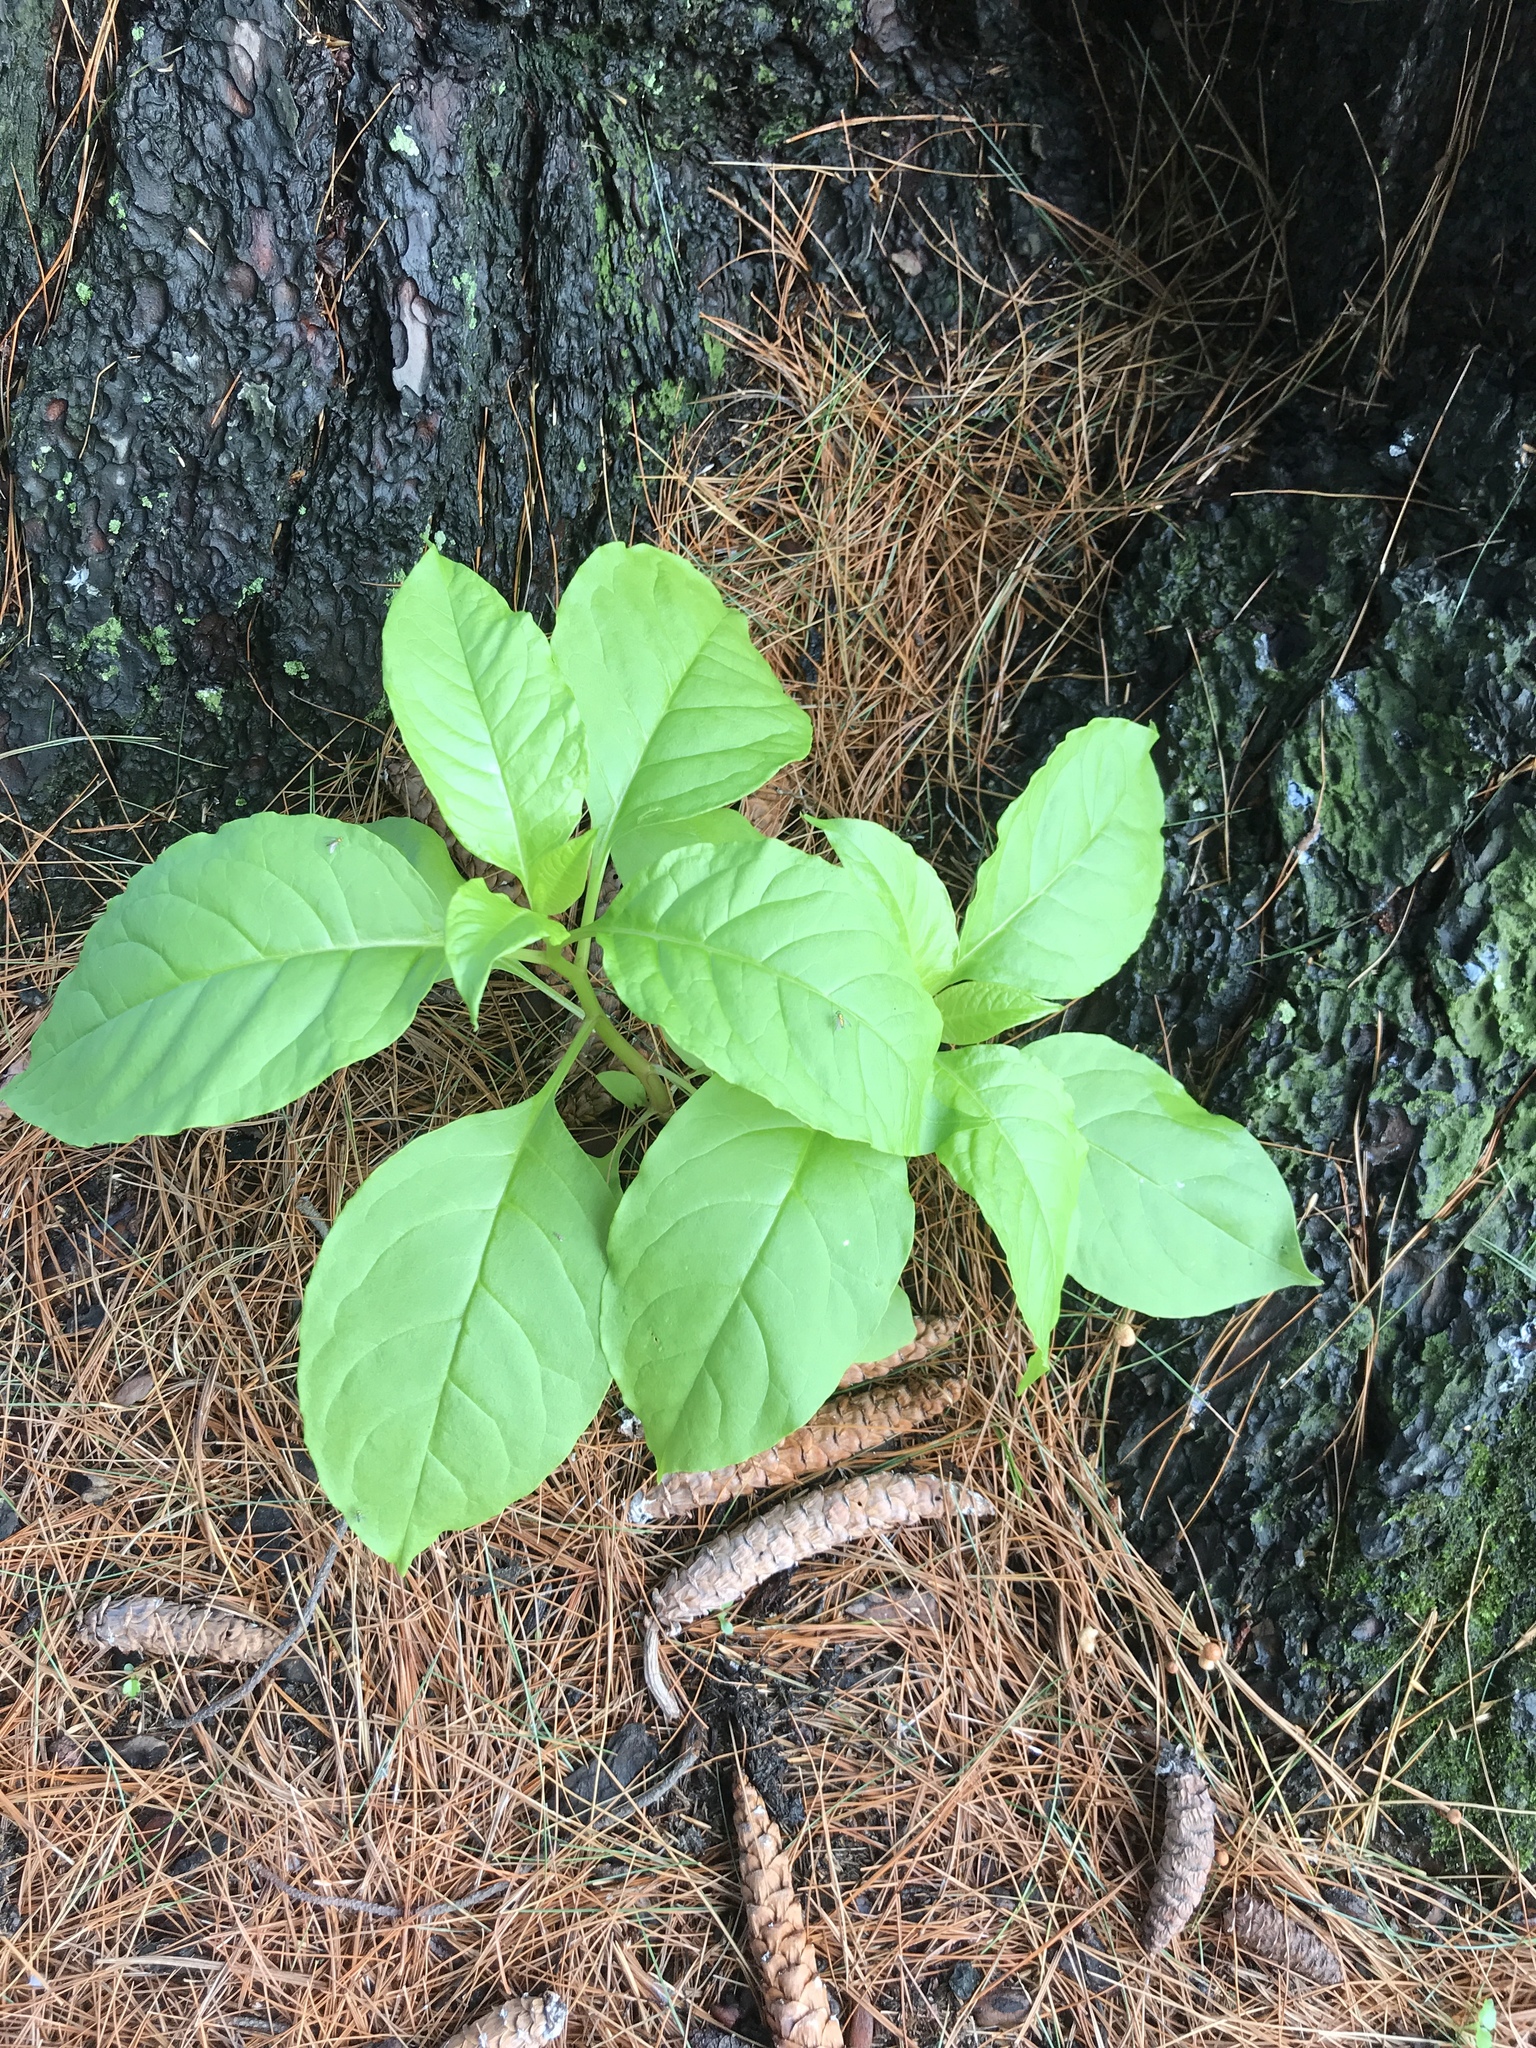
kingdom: Plantae
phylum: Tracheophyta
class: Magnoliopsida
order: Caryophyllales
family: Phytolaccaceae
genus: Phytolacca
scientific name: Phytolacca americana
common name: American pokeweed
